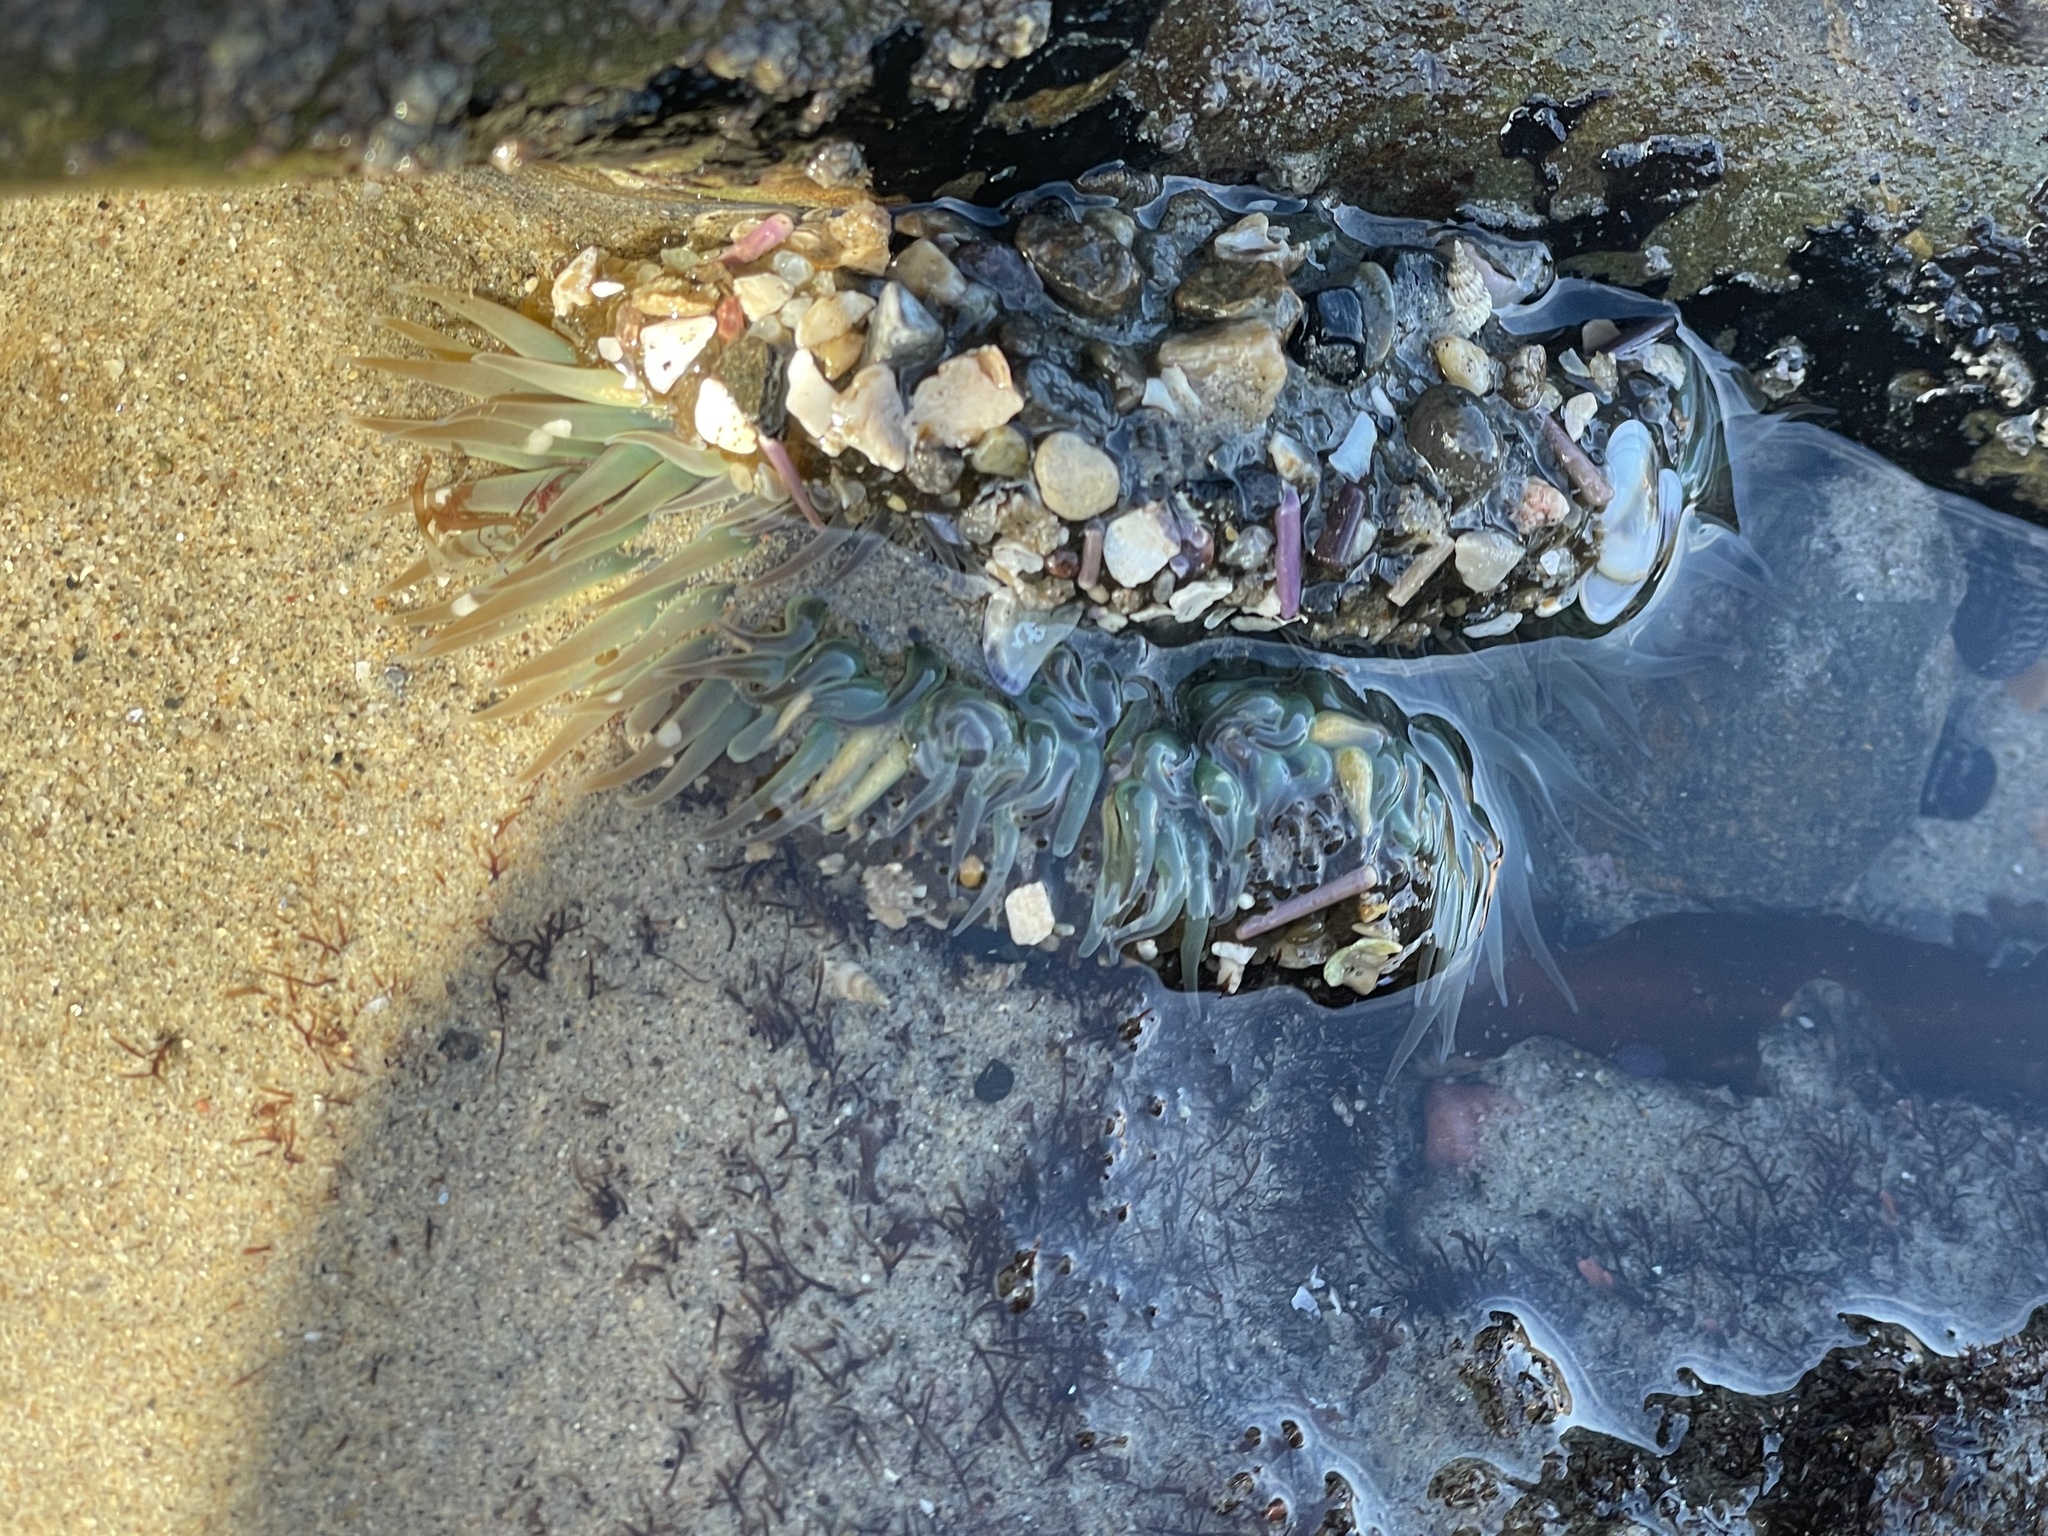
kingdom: Animalia
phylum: Cnidaria
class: Anthozoa
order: Actiniaria
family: Actiniidae
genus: Anthopleura
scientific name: Anthopleura sola
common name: Sun anemone
